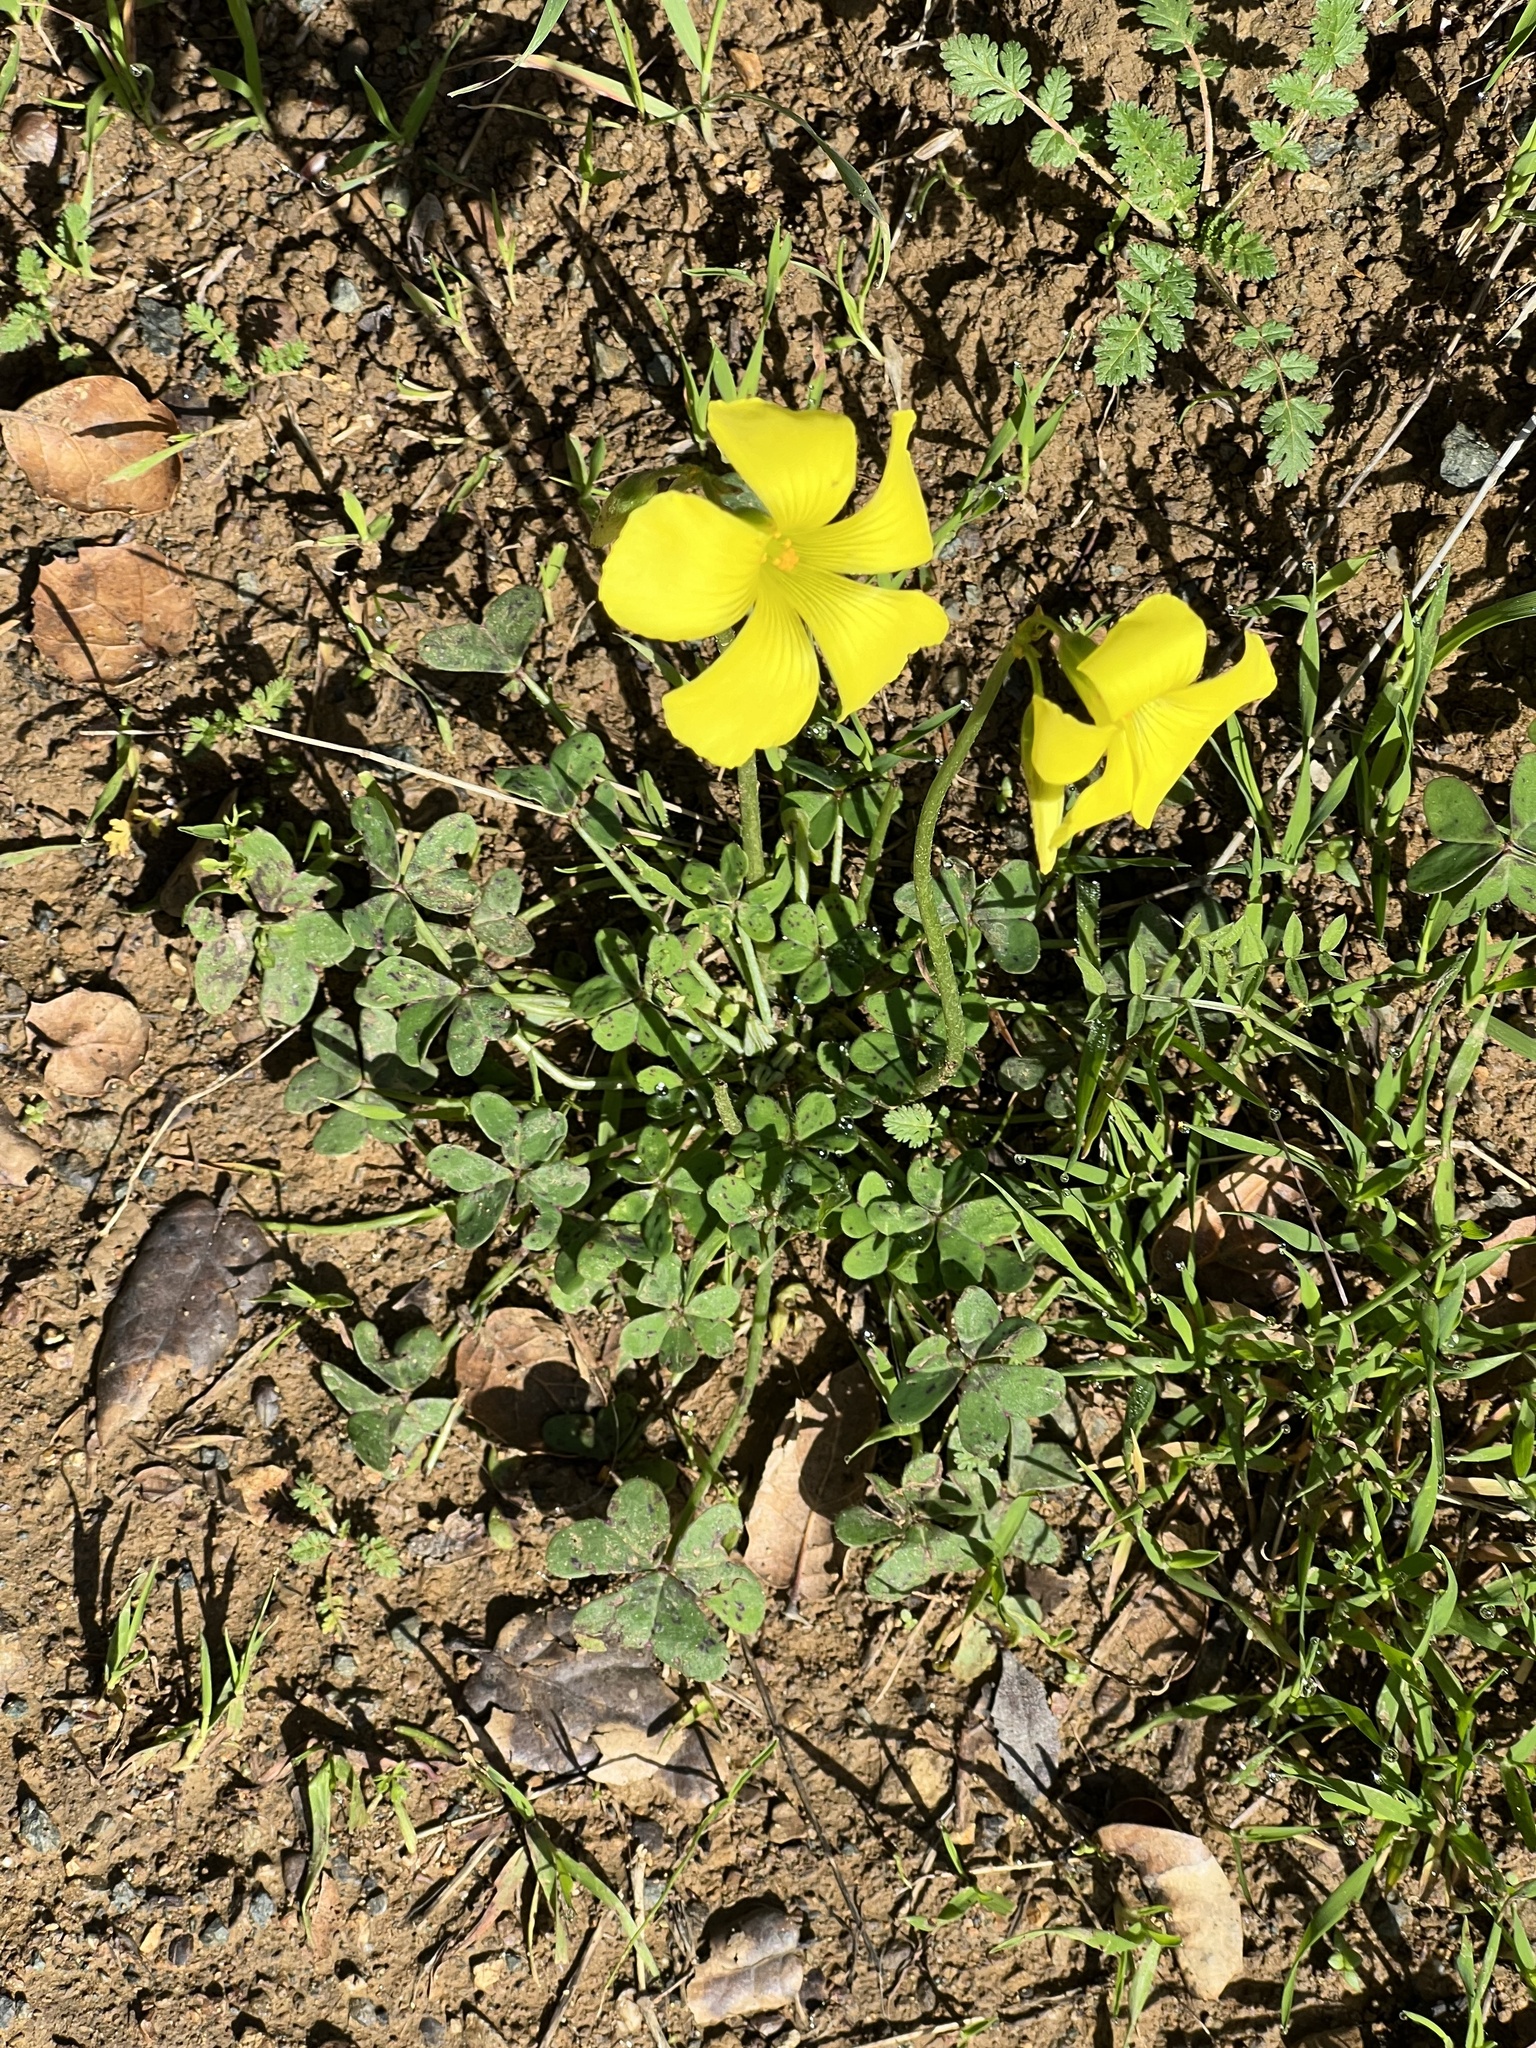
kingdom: Plantae
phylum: Tracheophyta
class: Magnoliopsida
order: Oxalidales
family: Oxalidaceae
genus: Oxalis
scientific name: Oxalis pes-caprae
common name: Bermuda-buttercup
